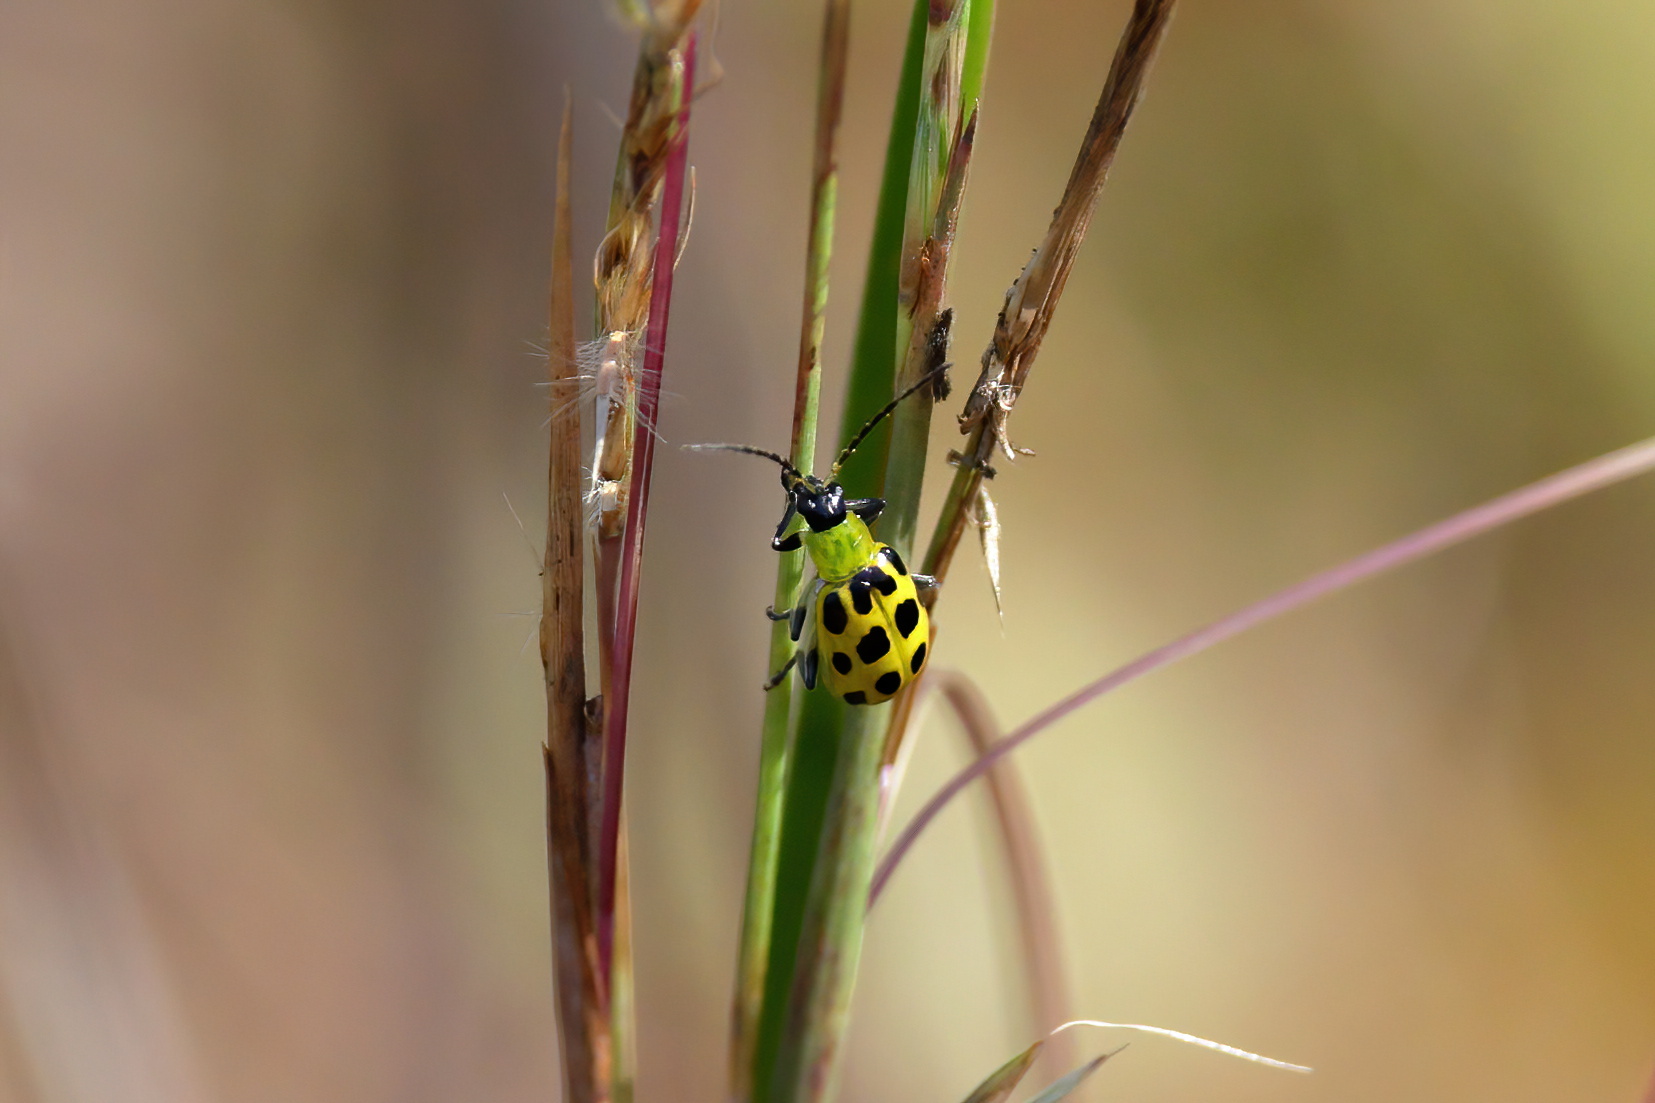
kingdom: Animalia
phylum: Arthropoda
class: Insecta
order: Coleoptera
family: Chrysomelidae
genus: Diabrotica
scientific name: Diabrotica undecimpunctata
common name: Spotted cucumber beetle
